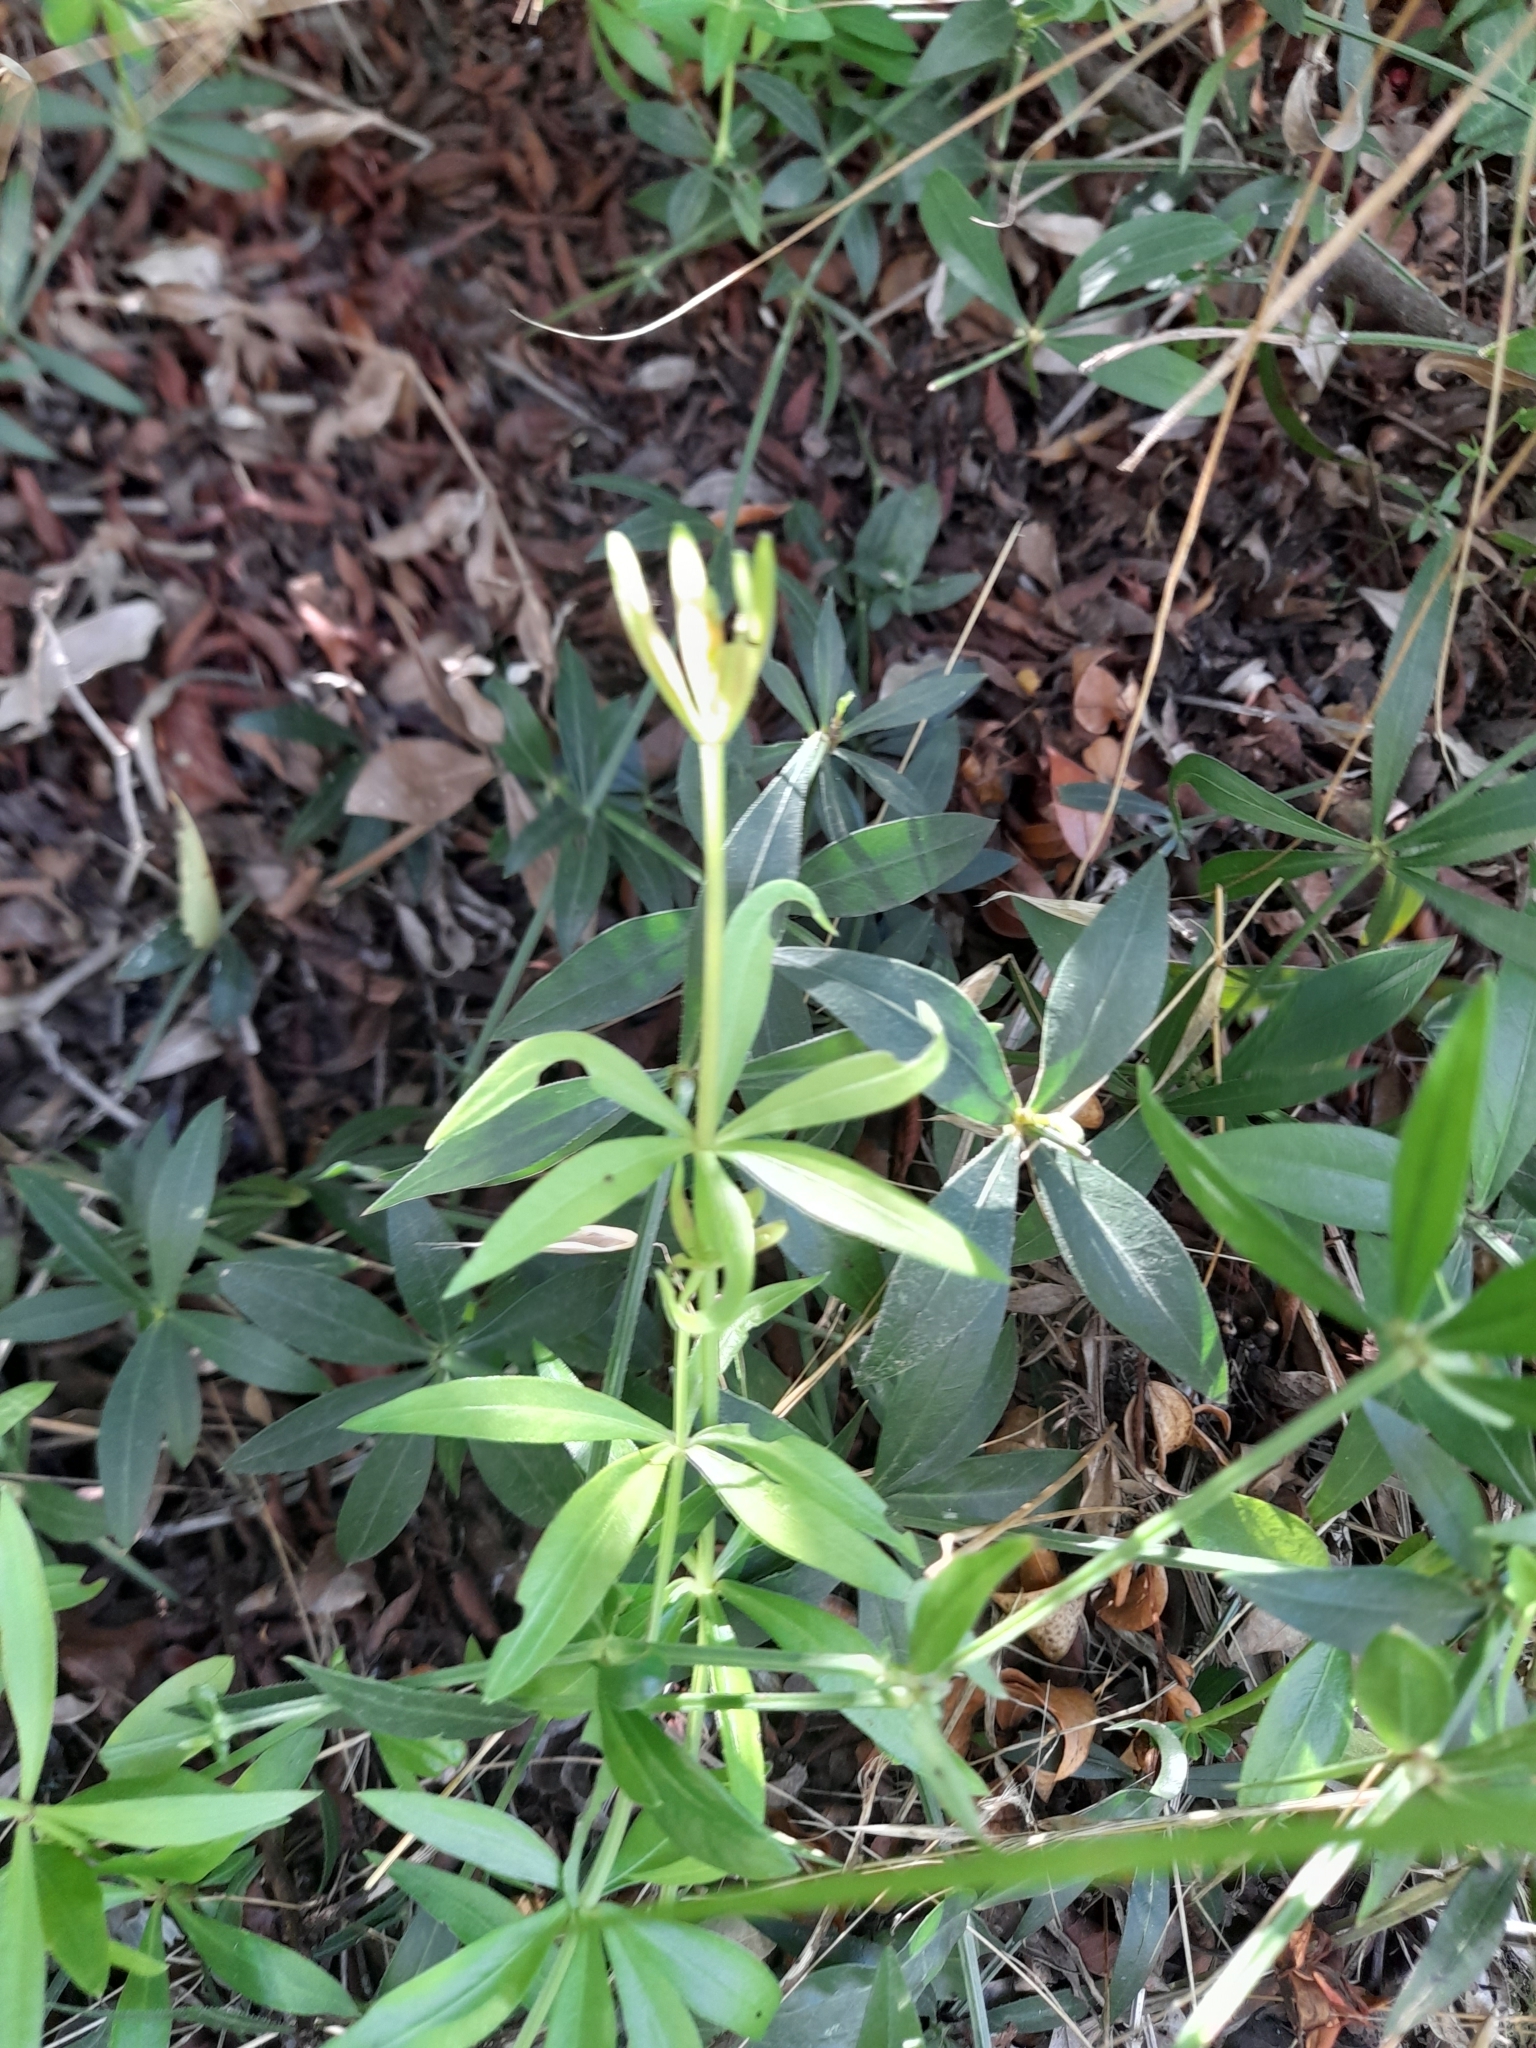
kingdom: Plantae
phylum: Tracheophyta
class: Magnoliopsida
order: Gentianales
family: Rubiaceae
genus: Rubia
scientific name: Rubia peregrina
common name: Wild madder
